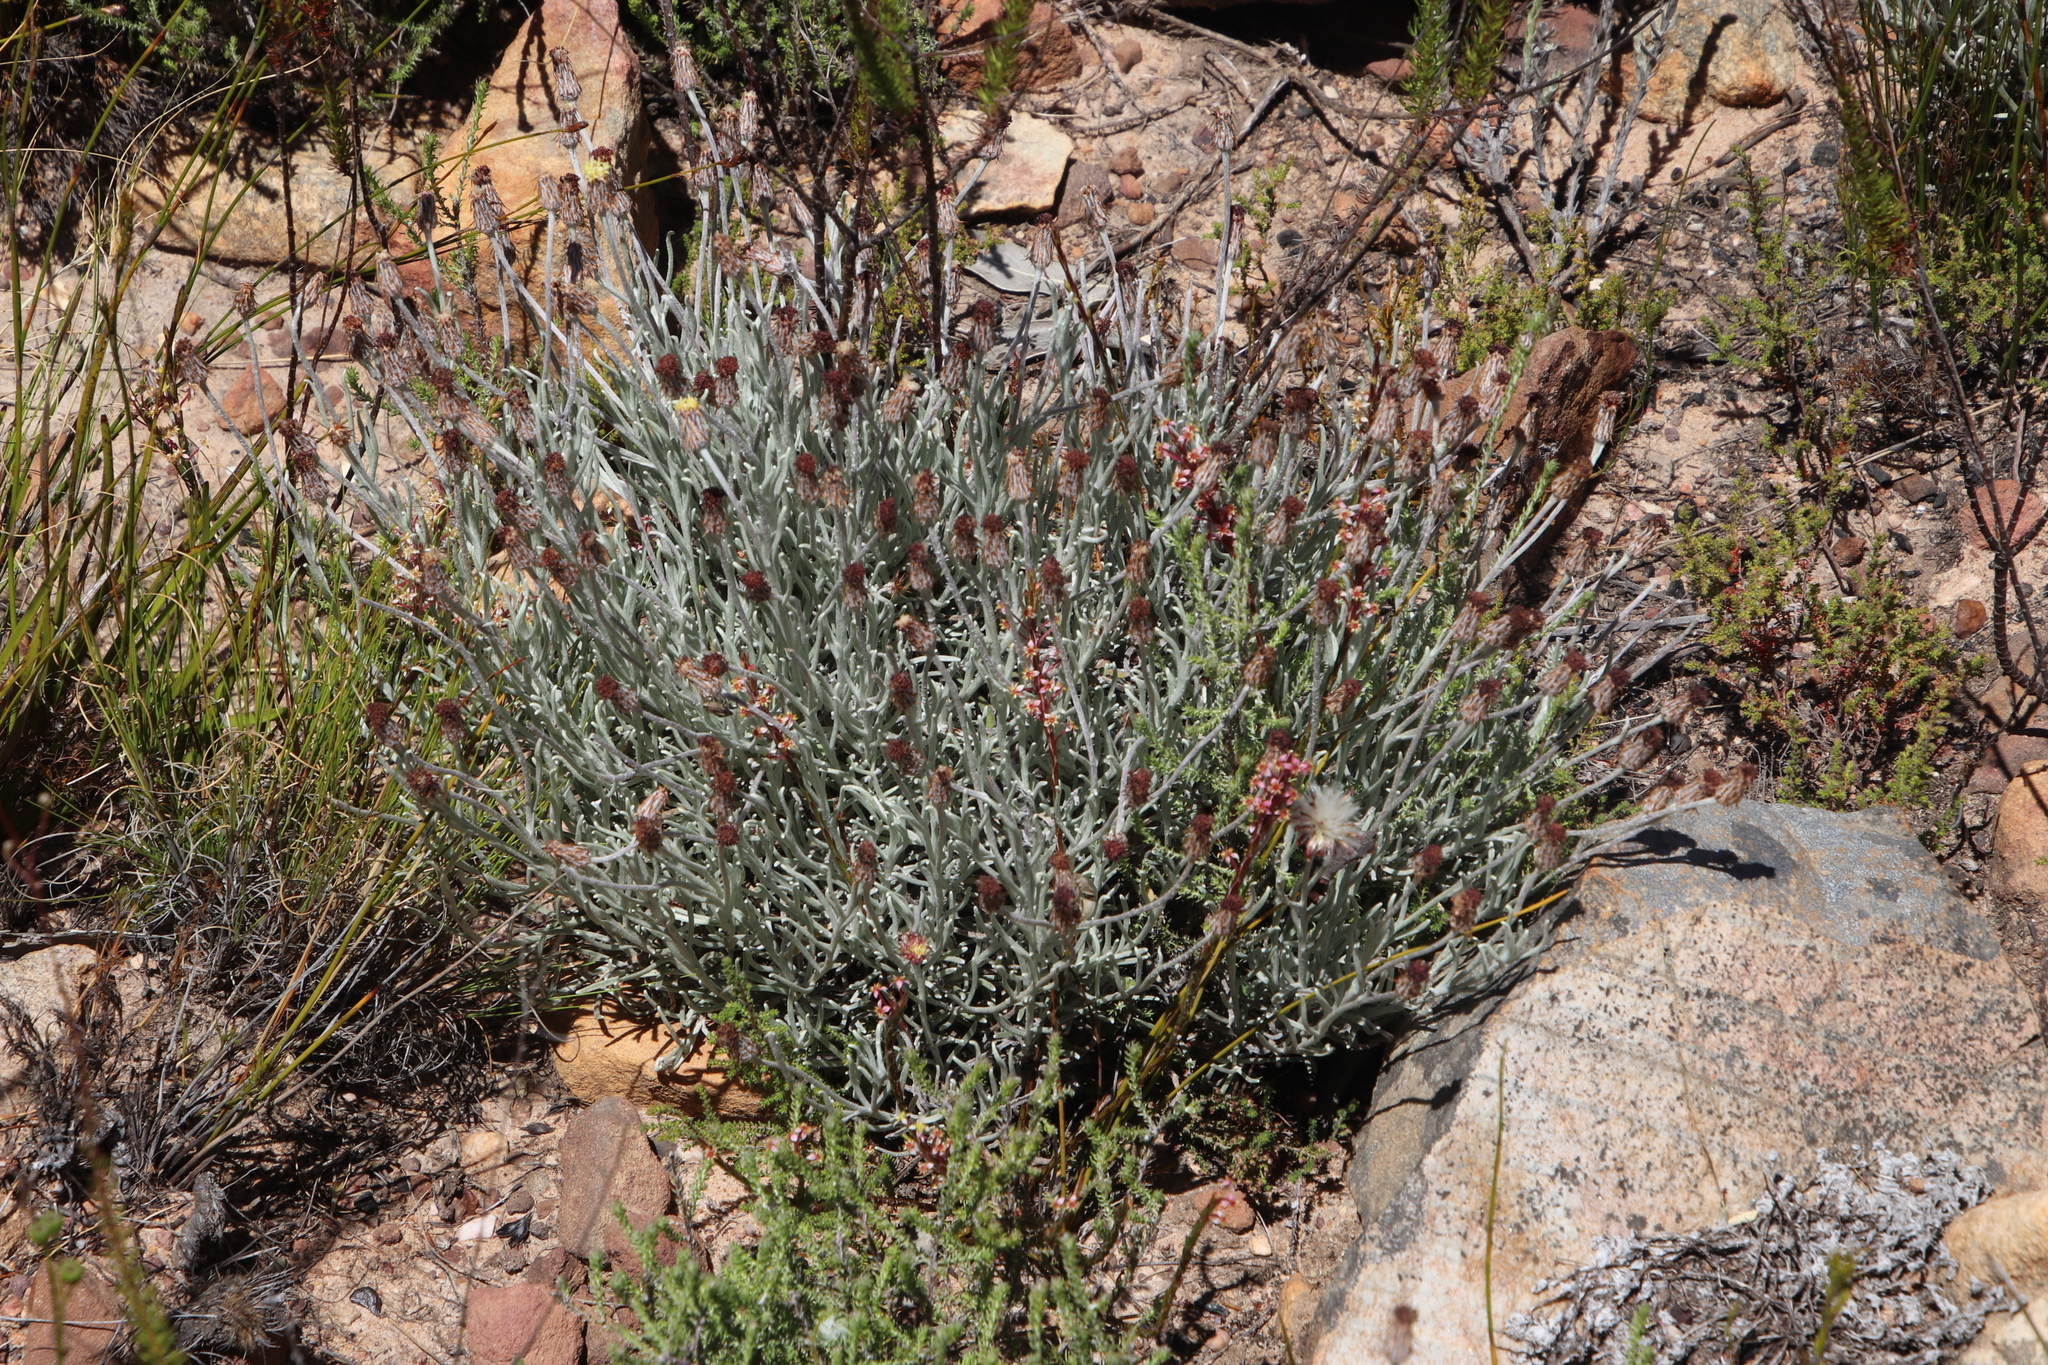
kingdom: Plantae
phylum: Tracheophyta
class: Magnoliopsida
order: Asterales
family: Asteraceae
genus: Syncarpha
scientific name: Syncarpha gnaphaloides
